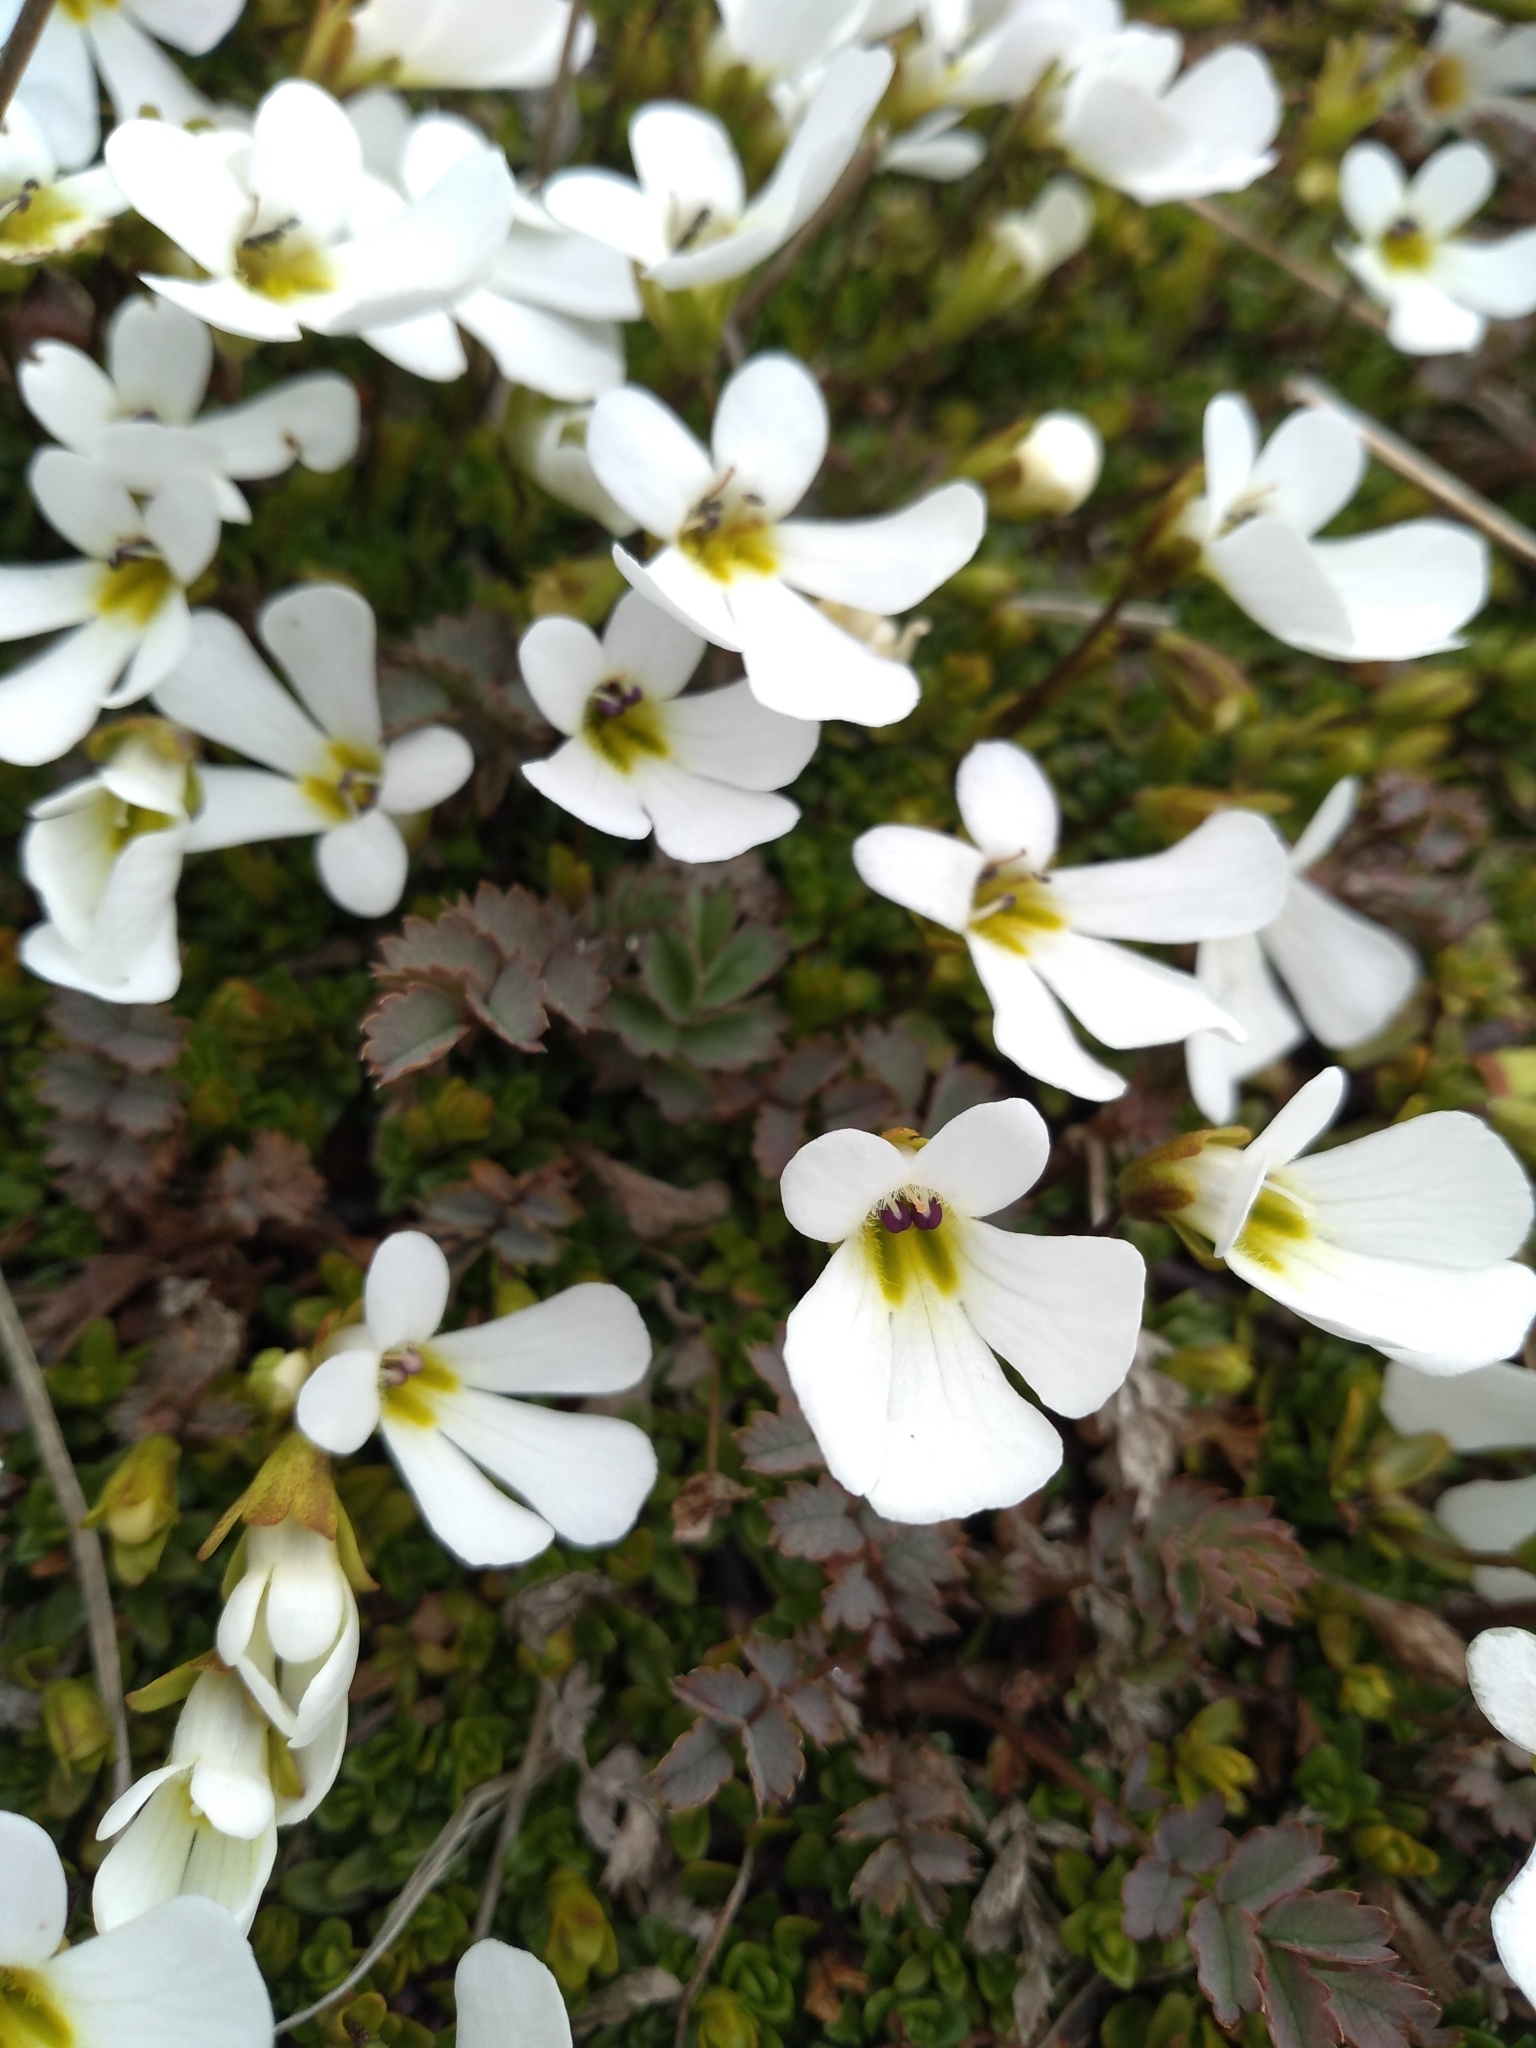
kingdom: Plantae
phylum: Tracheophyta
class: Magnoliopsida
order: Lamiales
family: Plantaginaceae
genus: Ourisia
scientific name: Ourisia caespitosa
